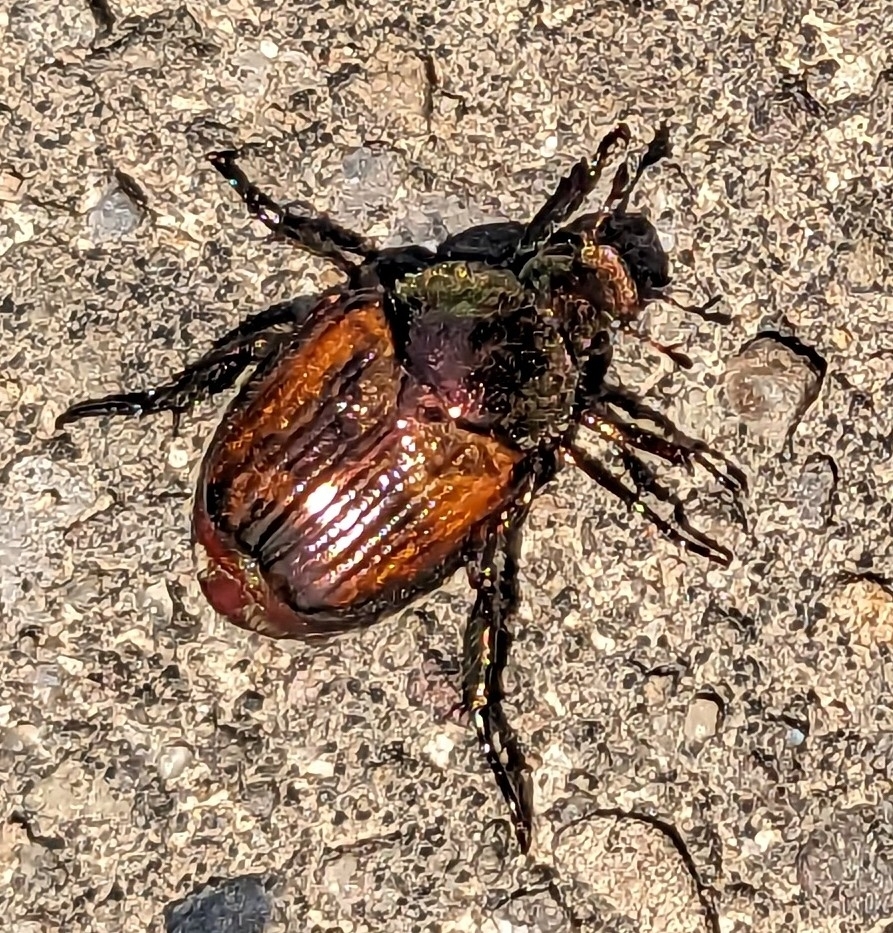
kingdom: Animalia
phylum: Arthropoda
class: Insecta
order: Coleoptera
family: Scarabaeidae
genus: Popillia
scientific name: Popillia japonica
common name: Japanese beetle
